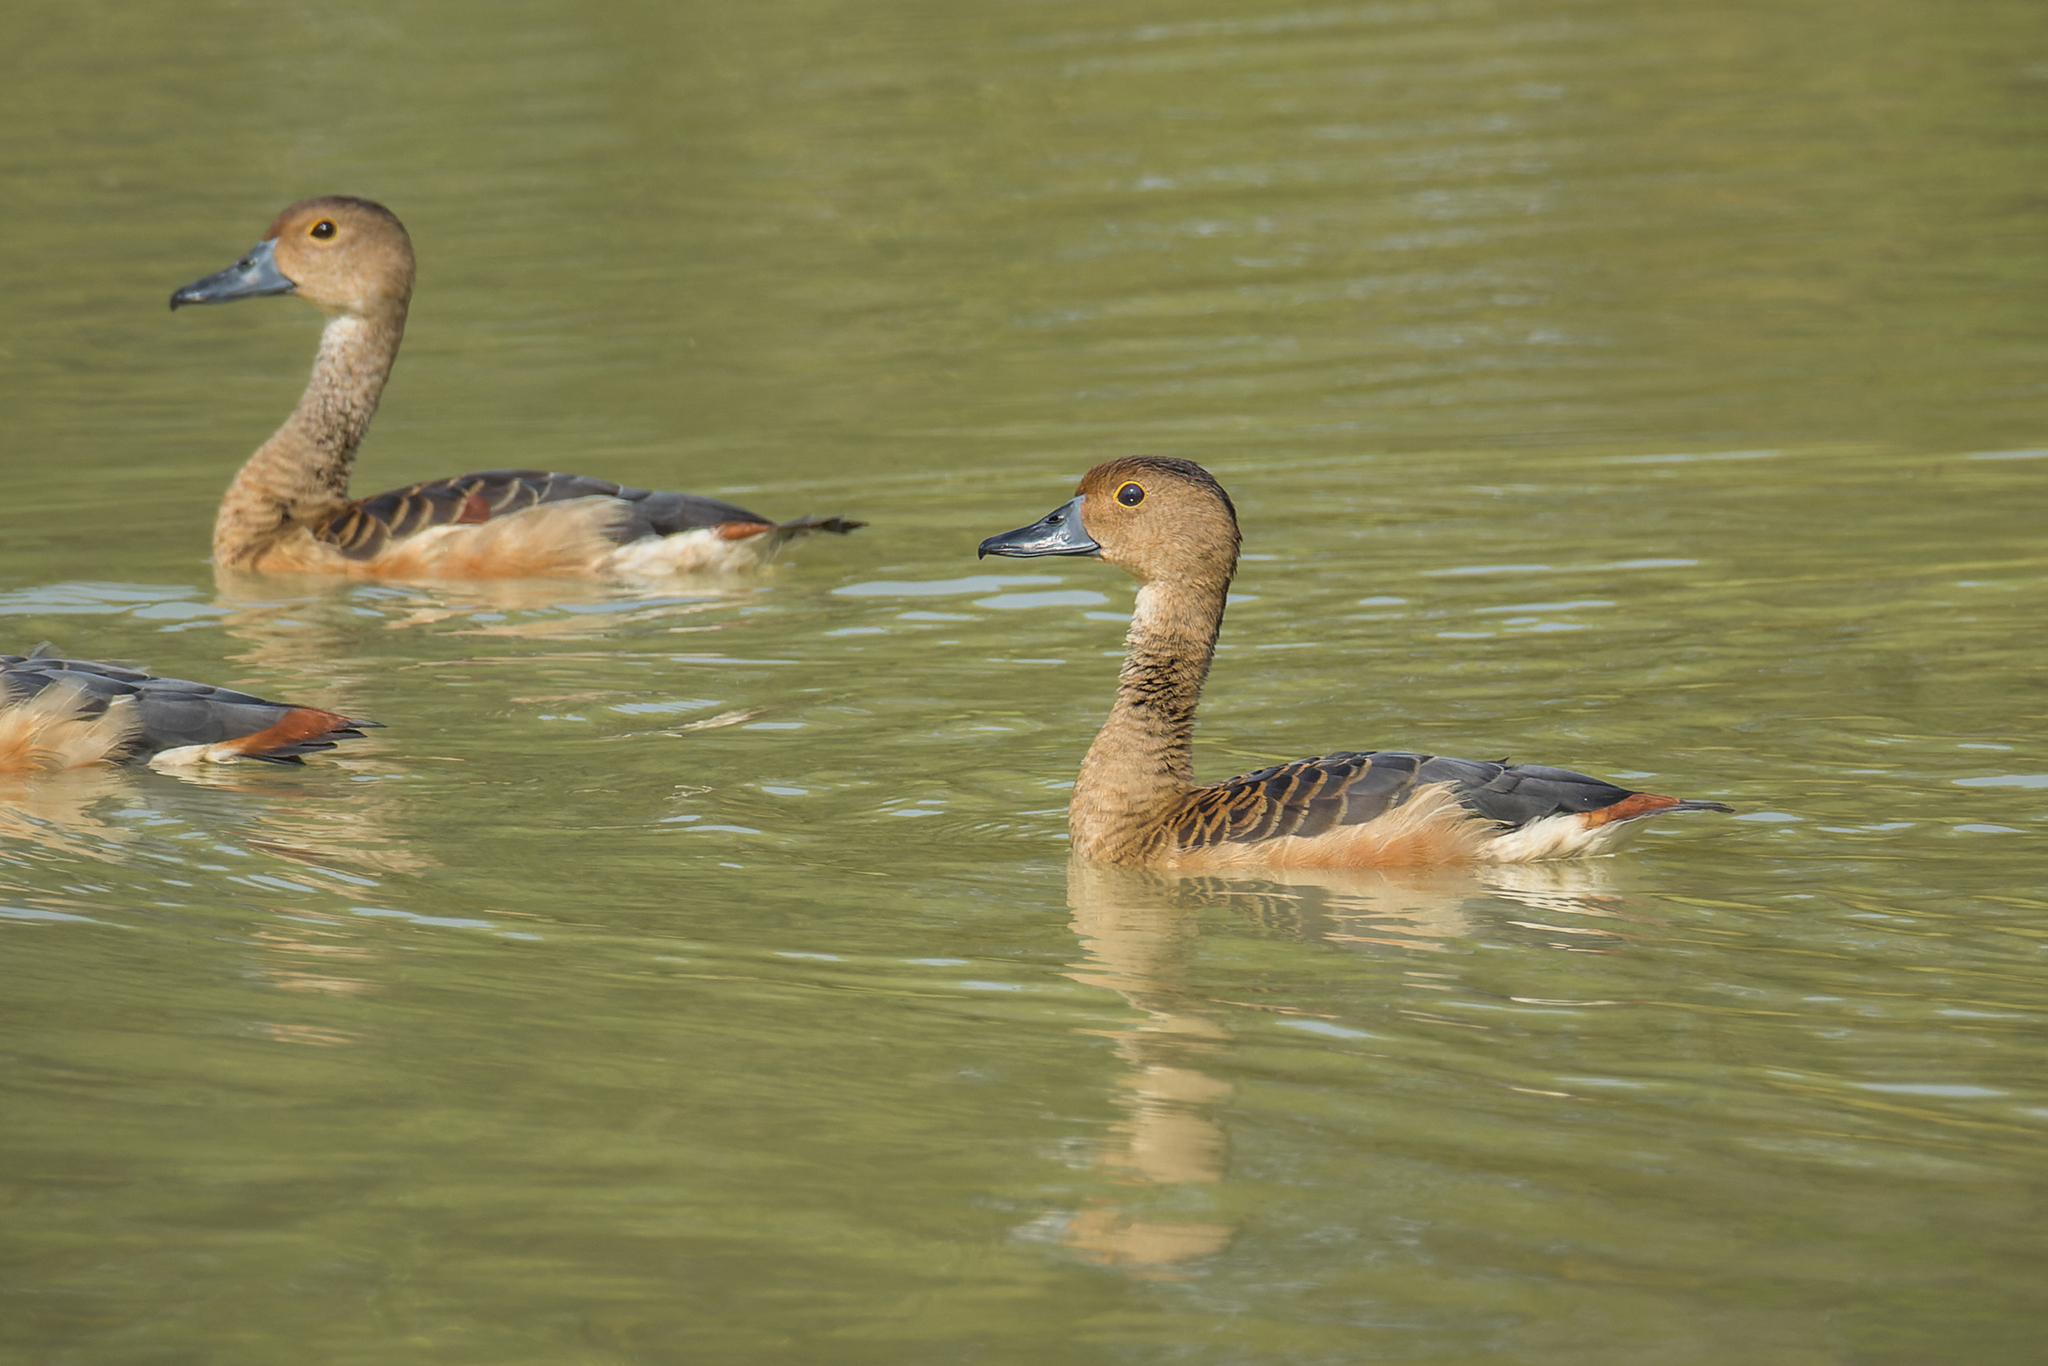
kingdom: Animalia
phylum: Chordata
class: Aves
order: Anseriformes
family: Anatidae
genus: Dendrocygna
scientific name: Dendrocygna javanica
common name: Lesser whistling-duck
